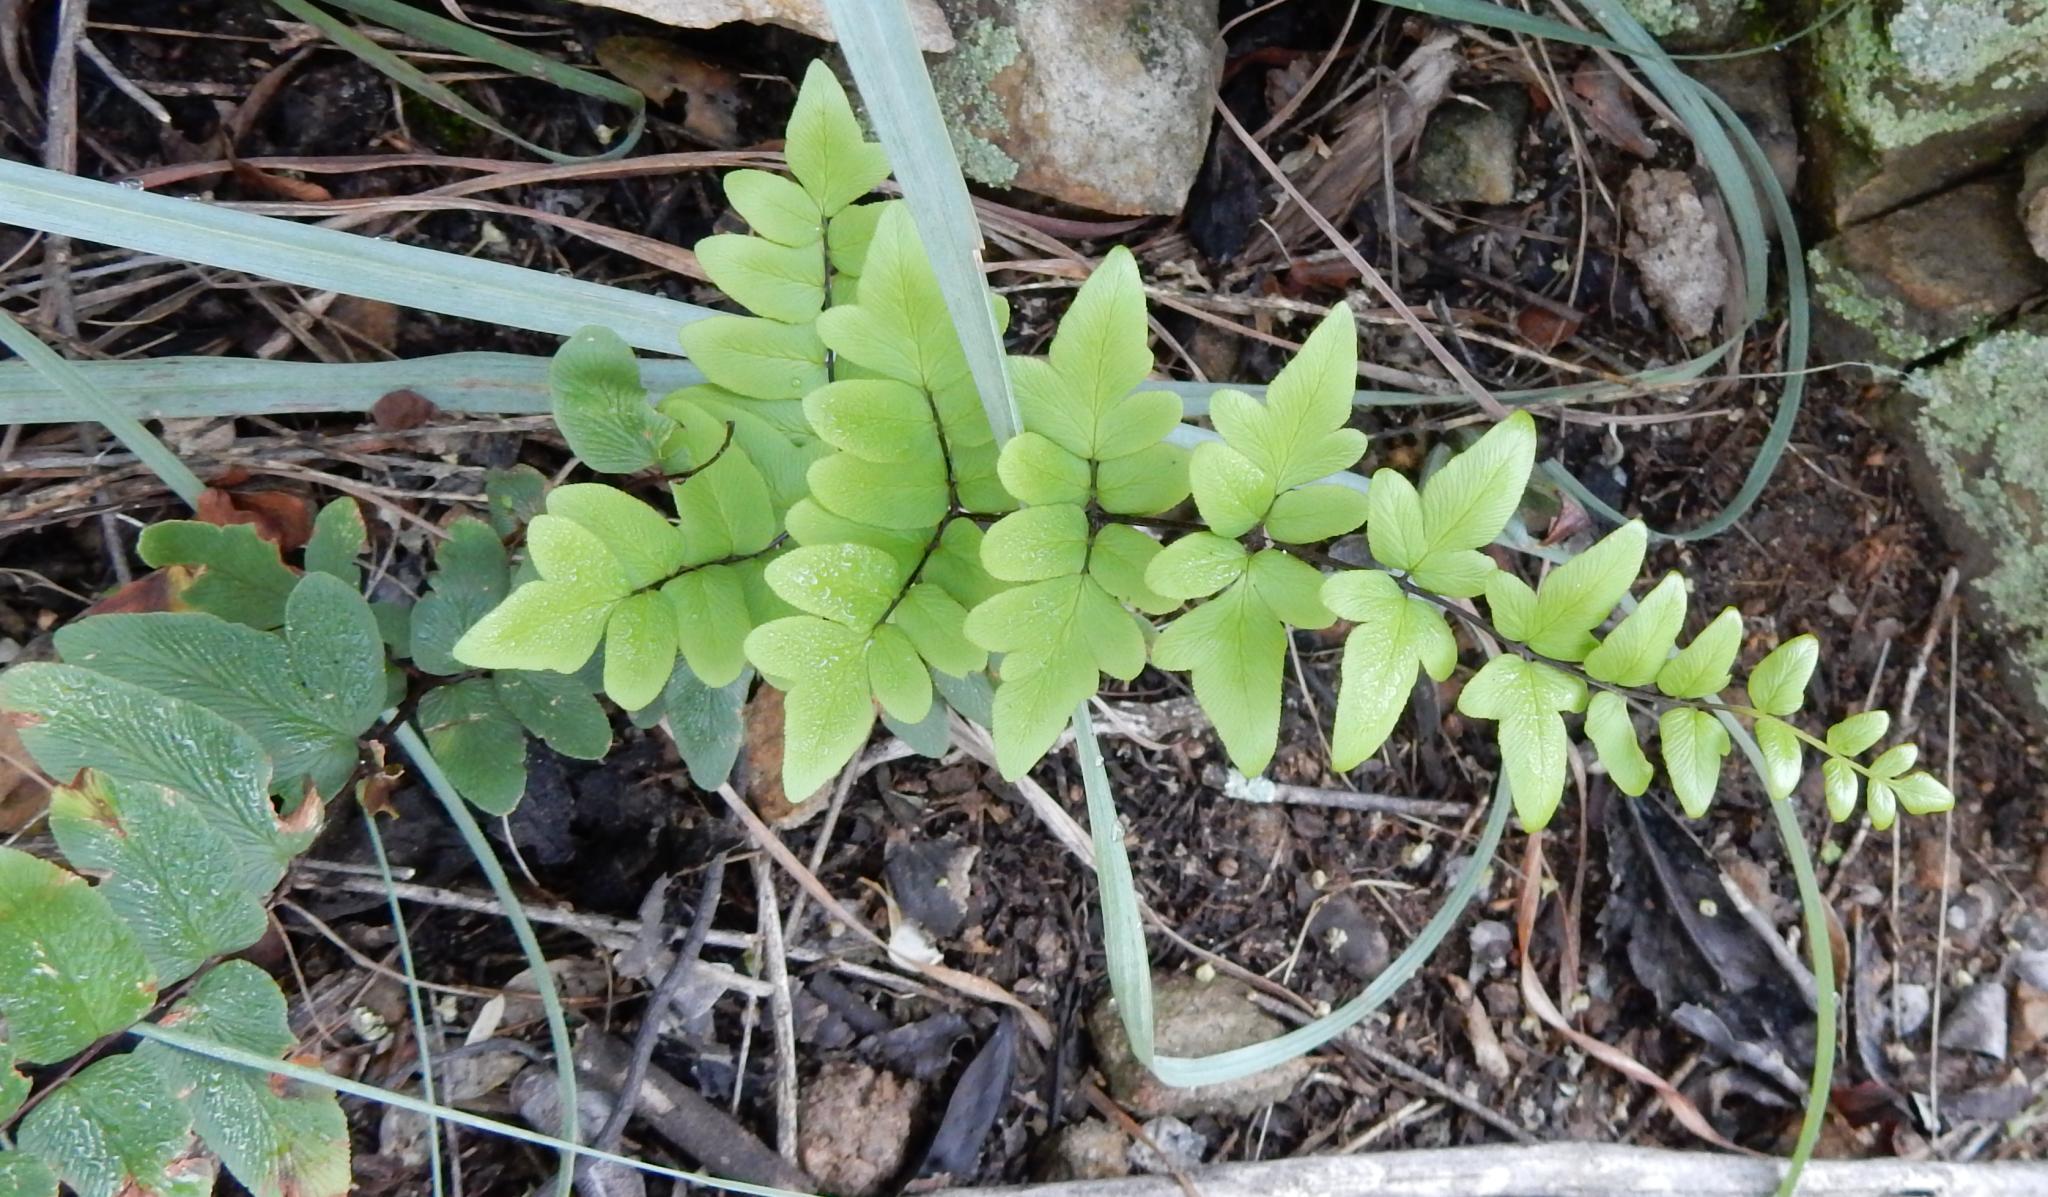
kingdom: Plantae
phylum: Tracheophyta
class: Polypodiopsida
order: Polypodiales
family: Pteridaceae
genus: Cheilanthes
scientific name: Cheilanthes viridis
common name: Green cliffbrake
